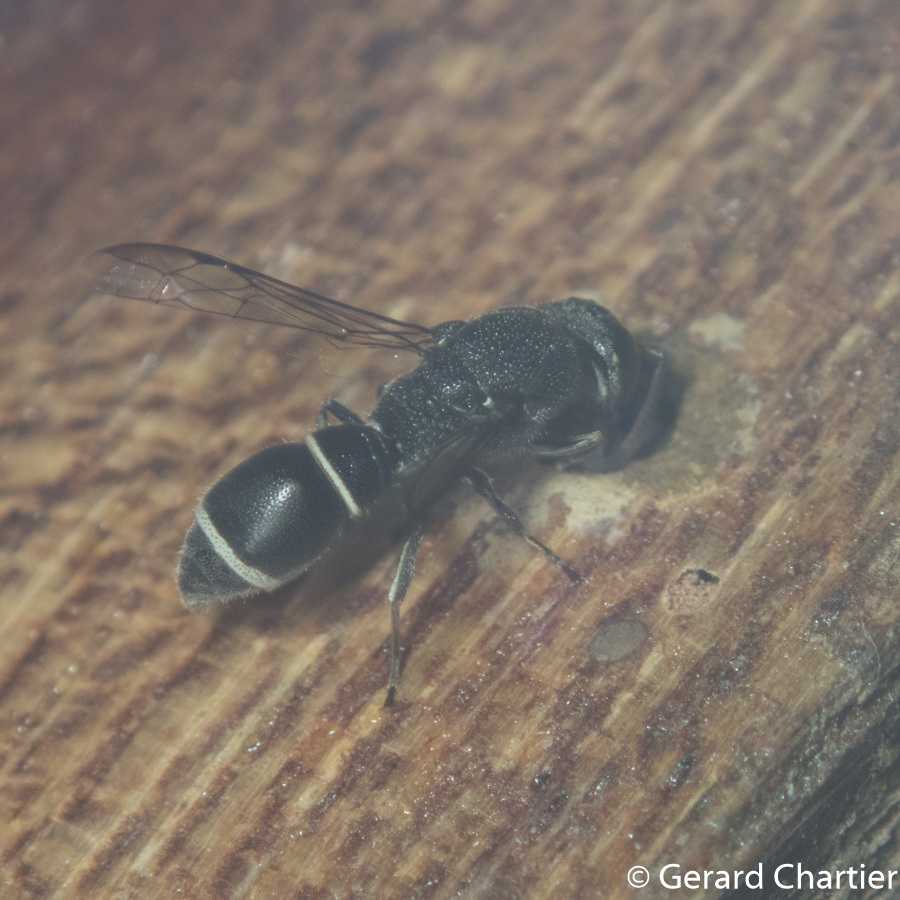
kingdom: Animalia
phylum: Arthropoda
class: Insecta
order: Hymenoptera
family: Eumenidae
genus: Subancistrocerus
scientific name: Subancistrocerus sichelii
